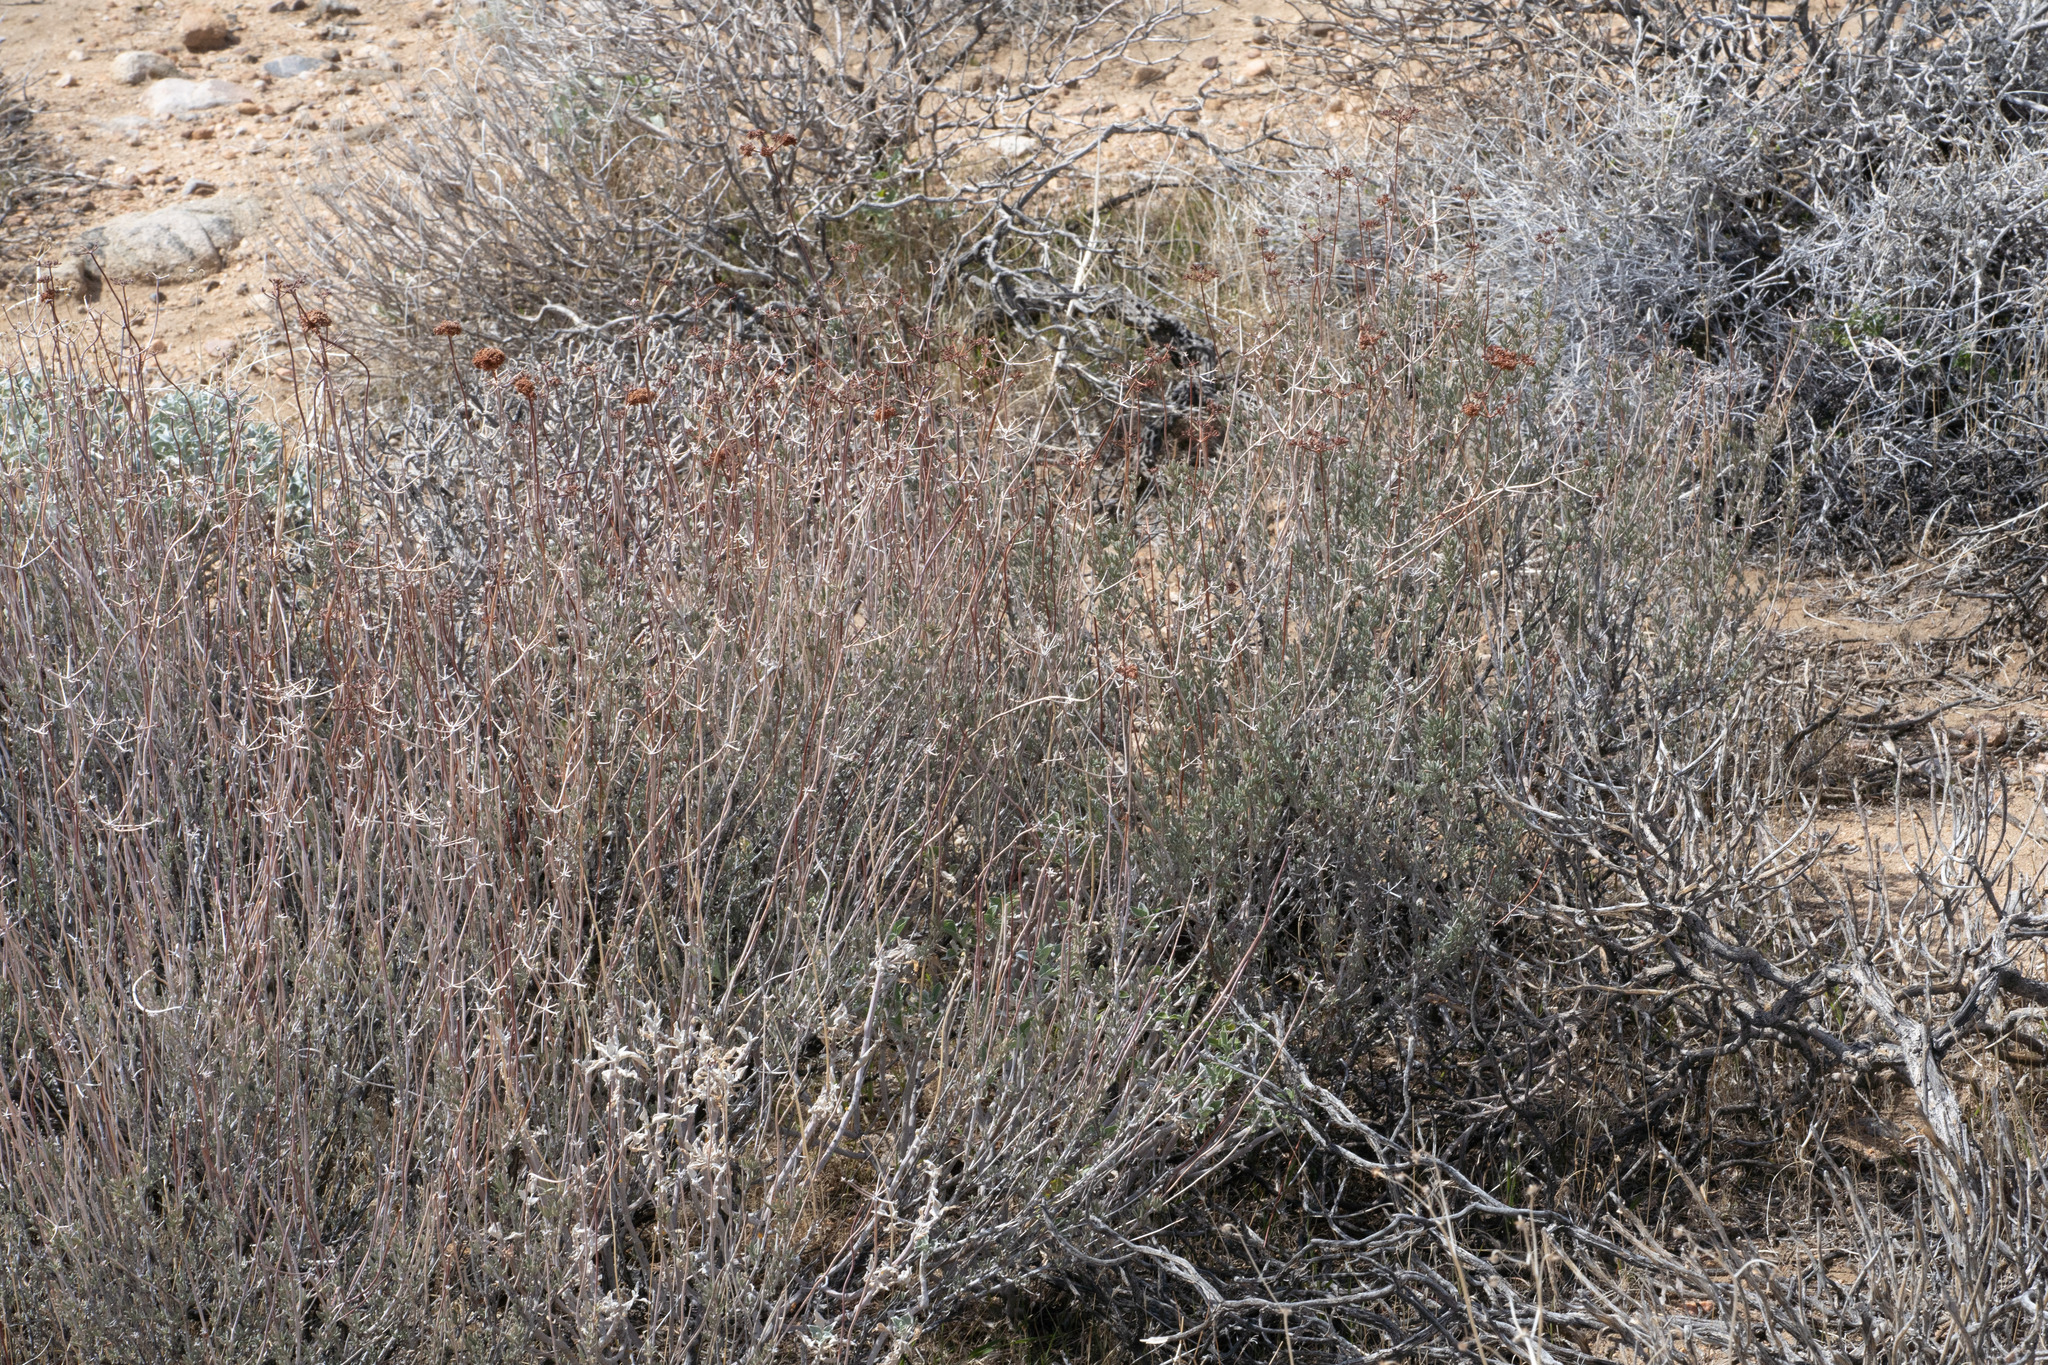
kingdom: Plantae
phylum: Tracheophyta
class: Magnoliopsida
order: Caryophyllales
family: Polygonaceae
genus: Eriogonum
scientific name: Eriogonum fasciculatum
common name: California wild buckwheat
